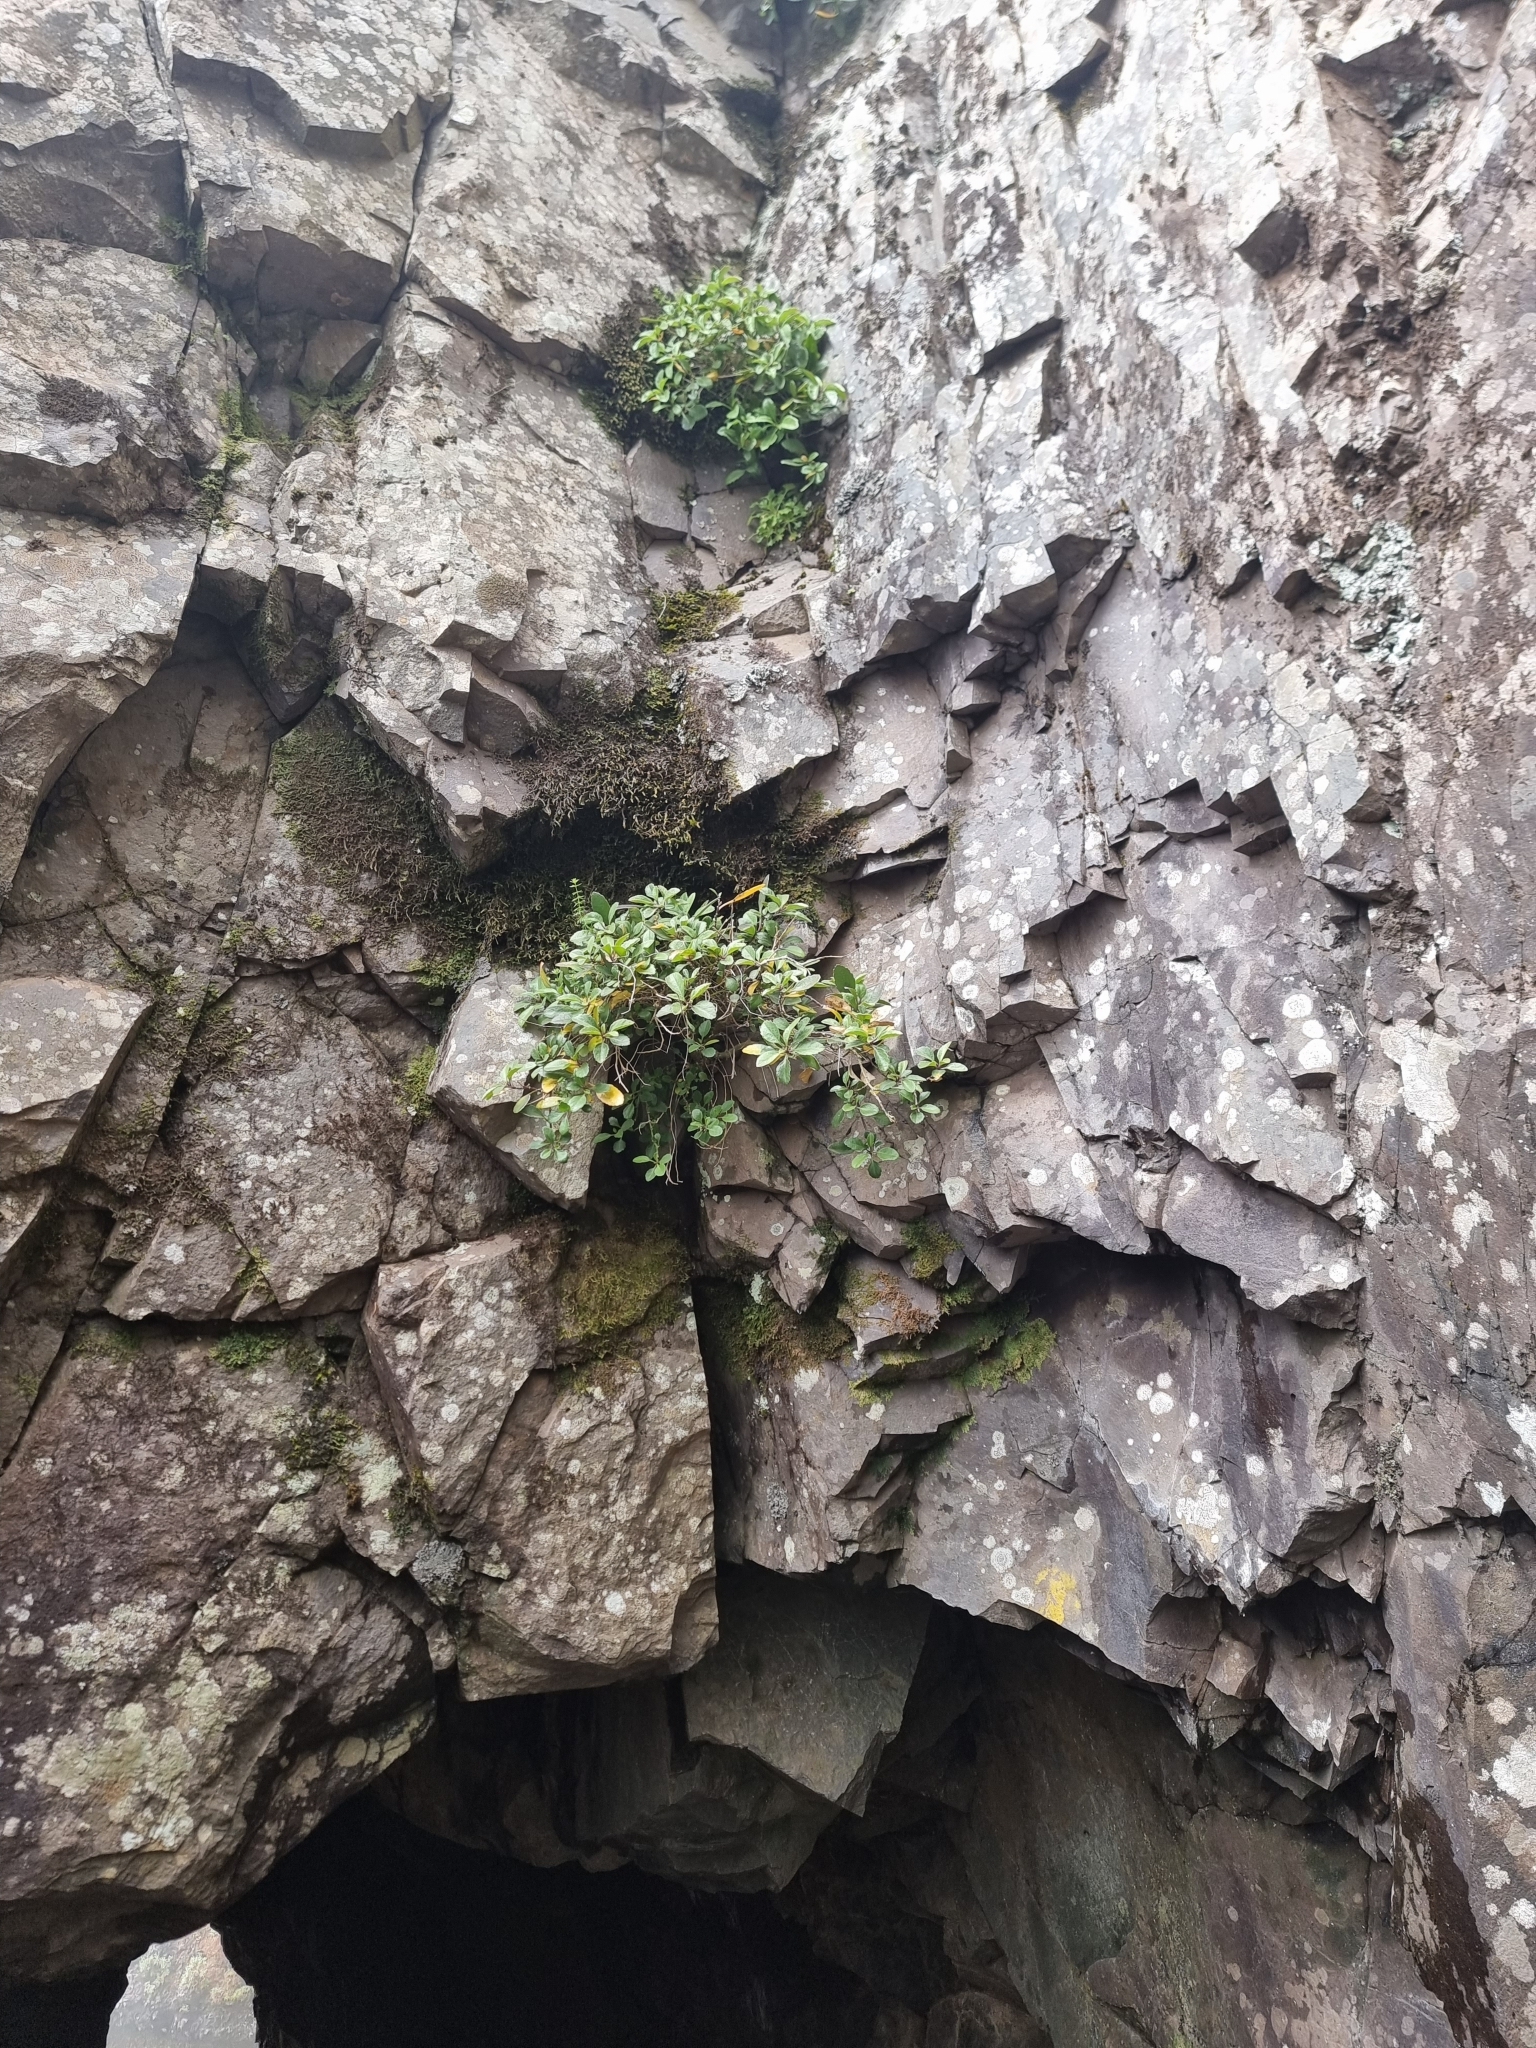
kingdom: Plantae
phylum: Tracheophyta
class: Magnoliopsida
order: Brassicales
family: Brassicaceae
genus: Sinapidendron
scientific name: Sinapidendron frutescens
